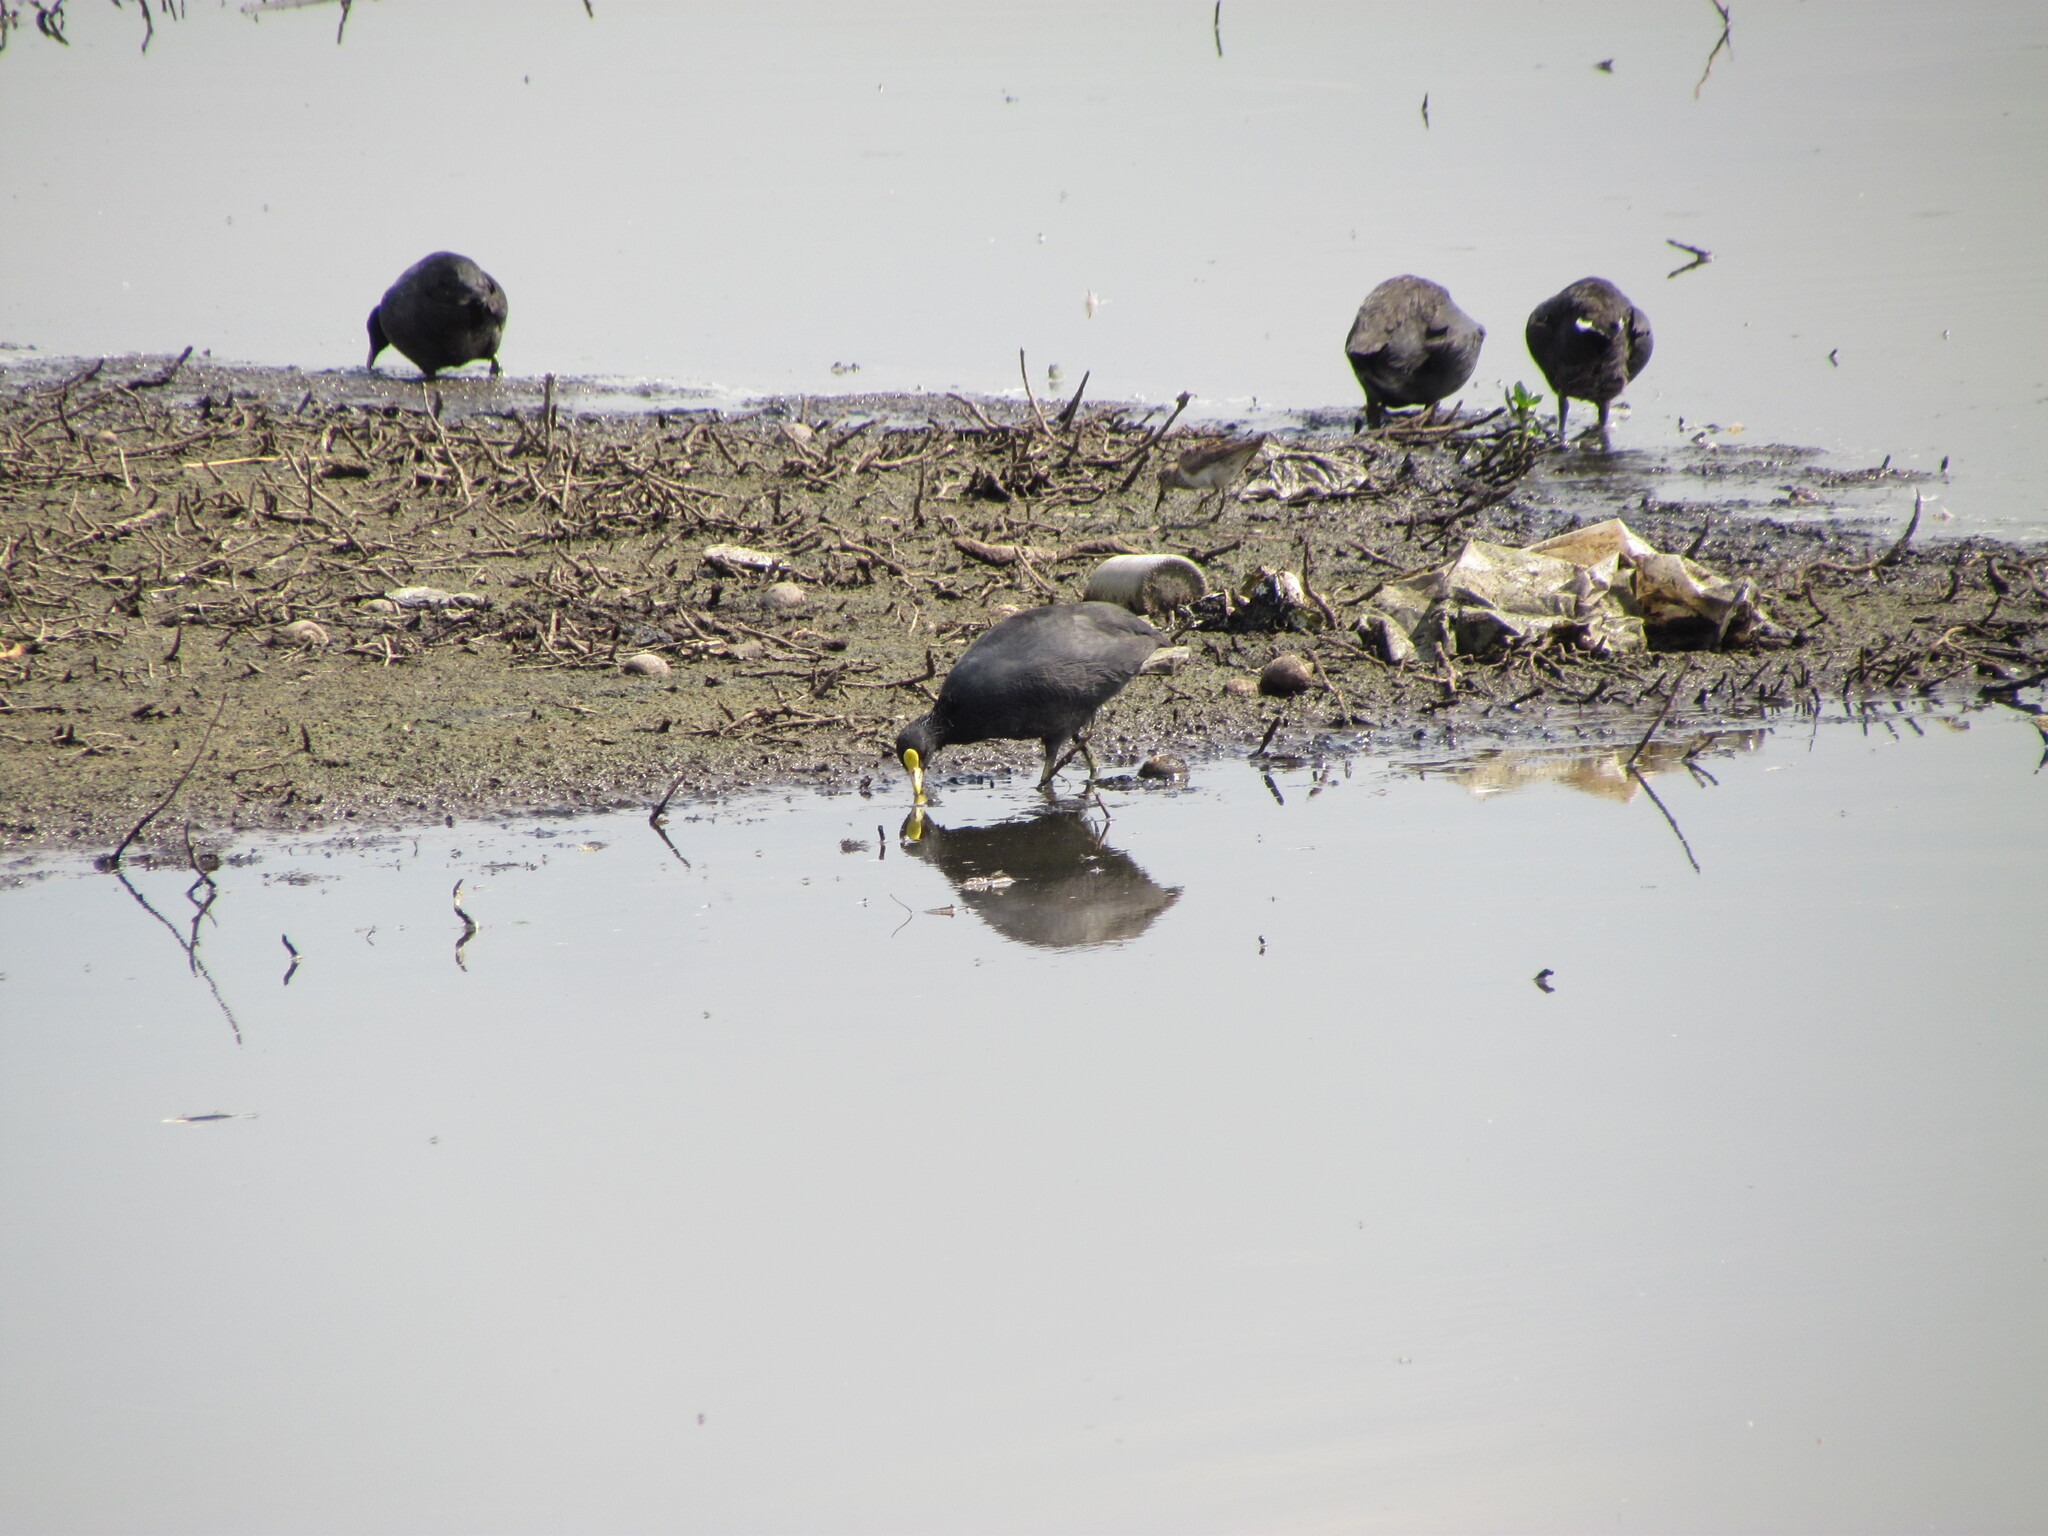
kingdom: Animalia
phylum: Chordata
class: Aves
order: Gruiformes
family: Rallidae
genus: Fulica
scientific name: Fulica leucoptera
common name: White-winged coot
